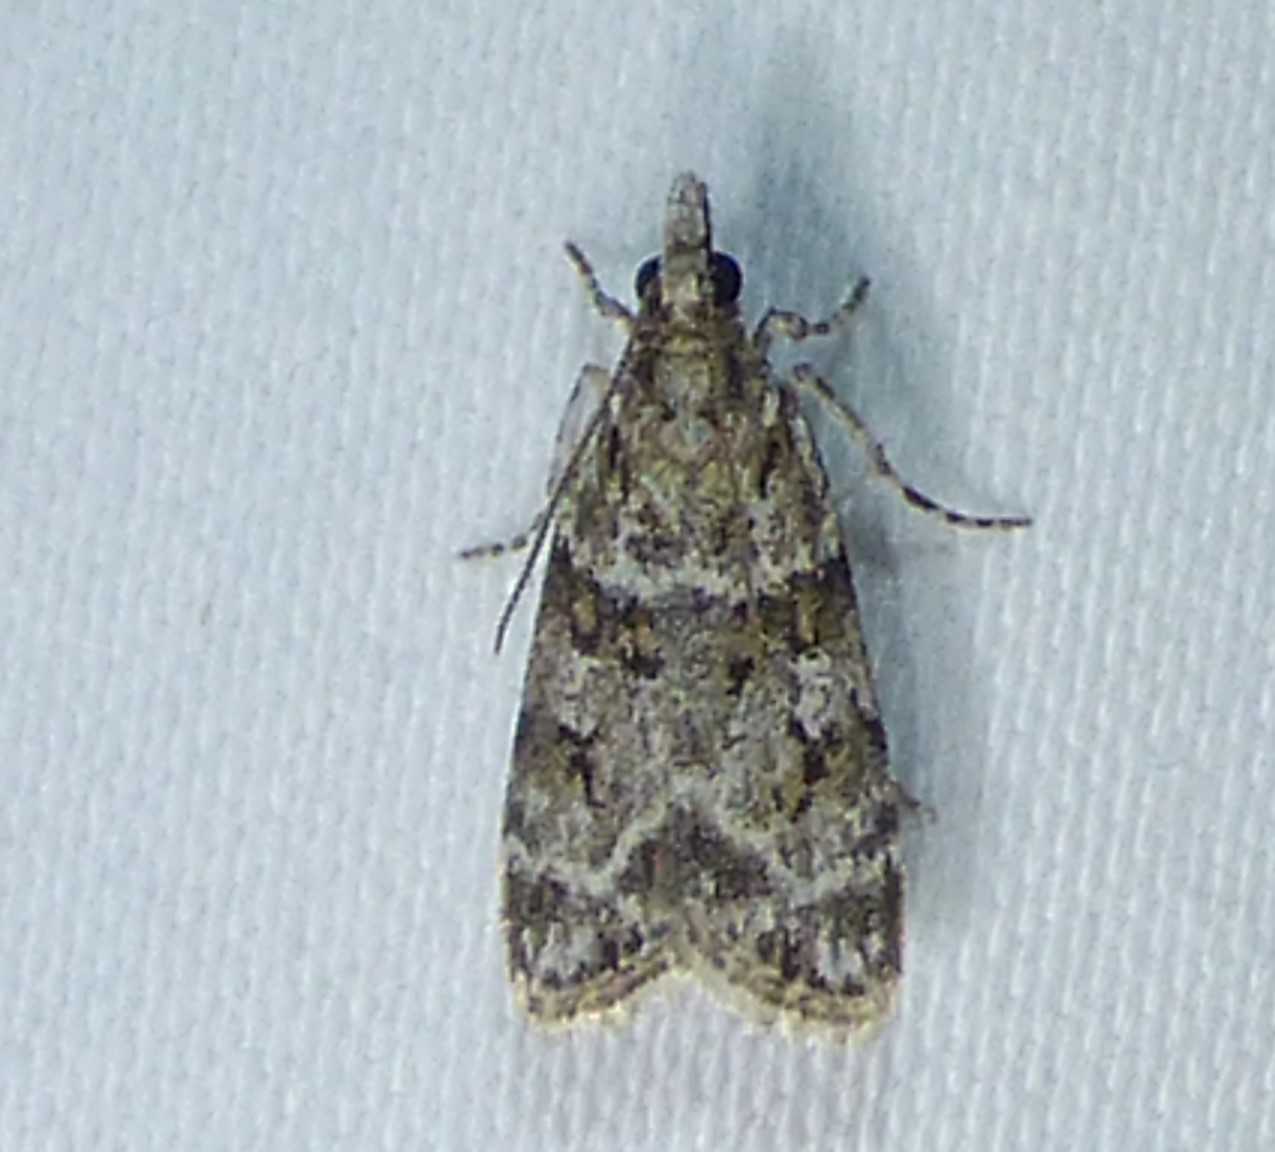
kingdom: Animalia
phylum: Arthropoda
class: Insecta
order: Lepidoptera
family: Crambidae
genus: Scoparia
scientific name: Scoparia biplagialis
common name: Double-striped scoparia moth
